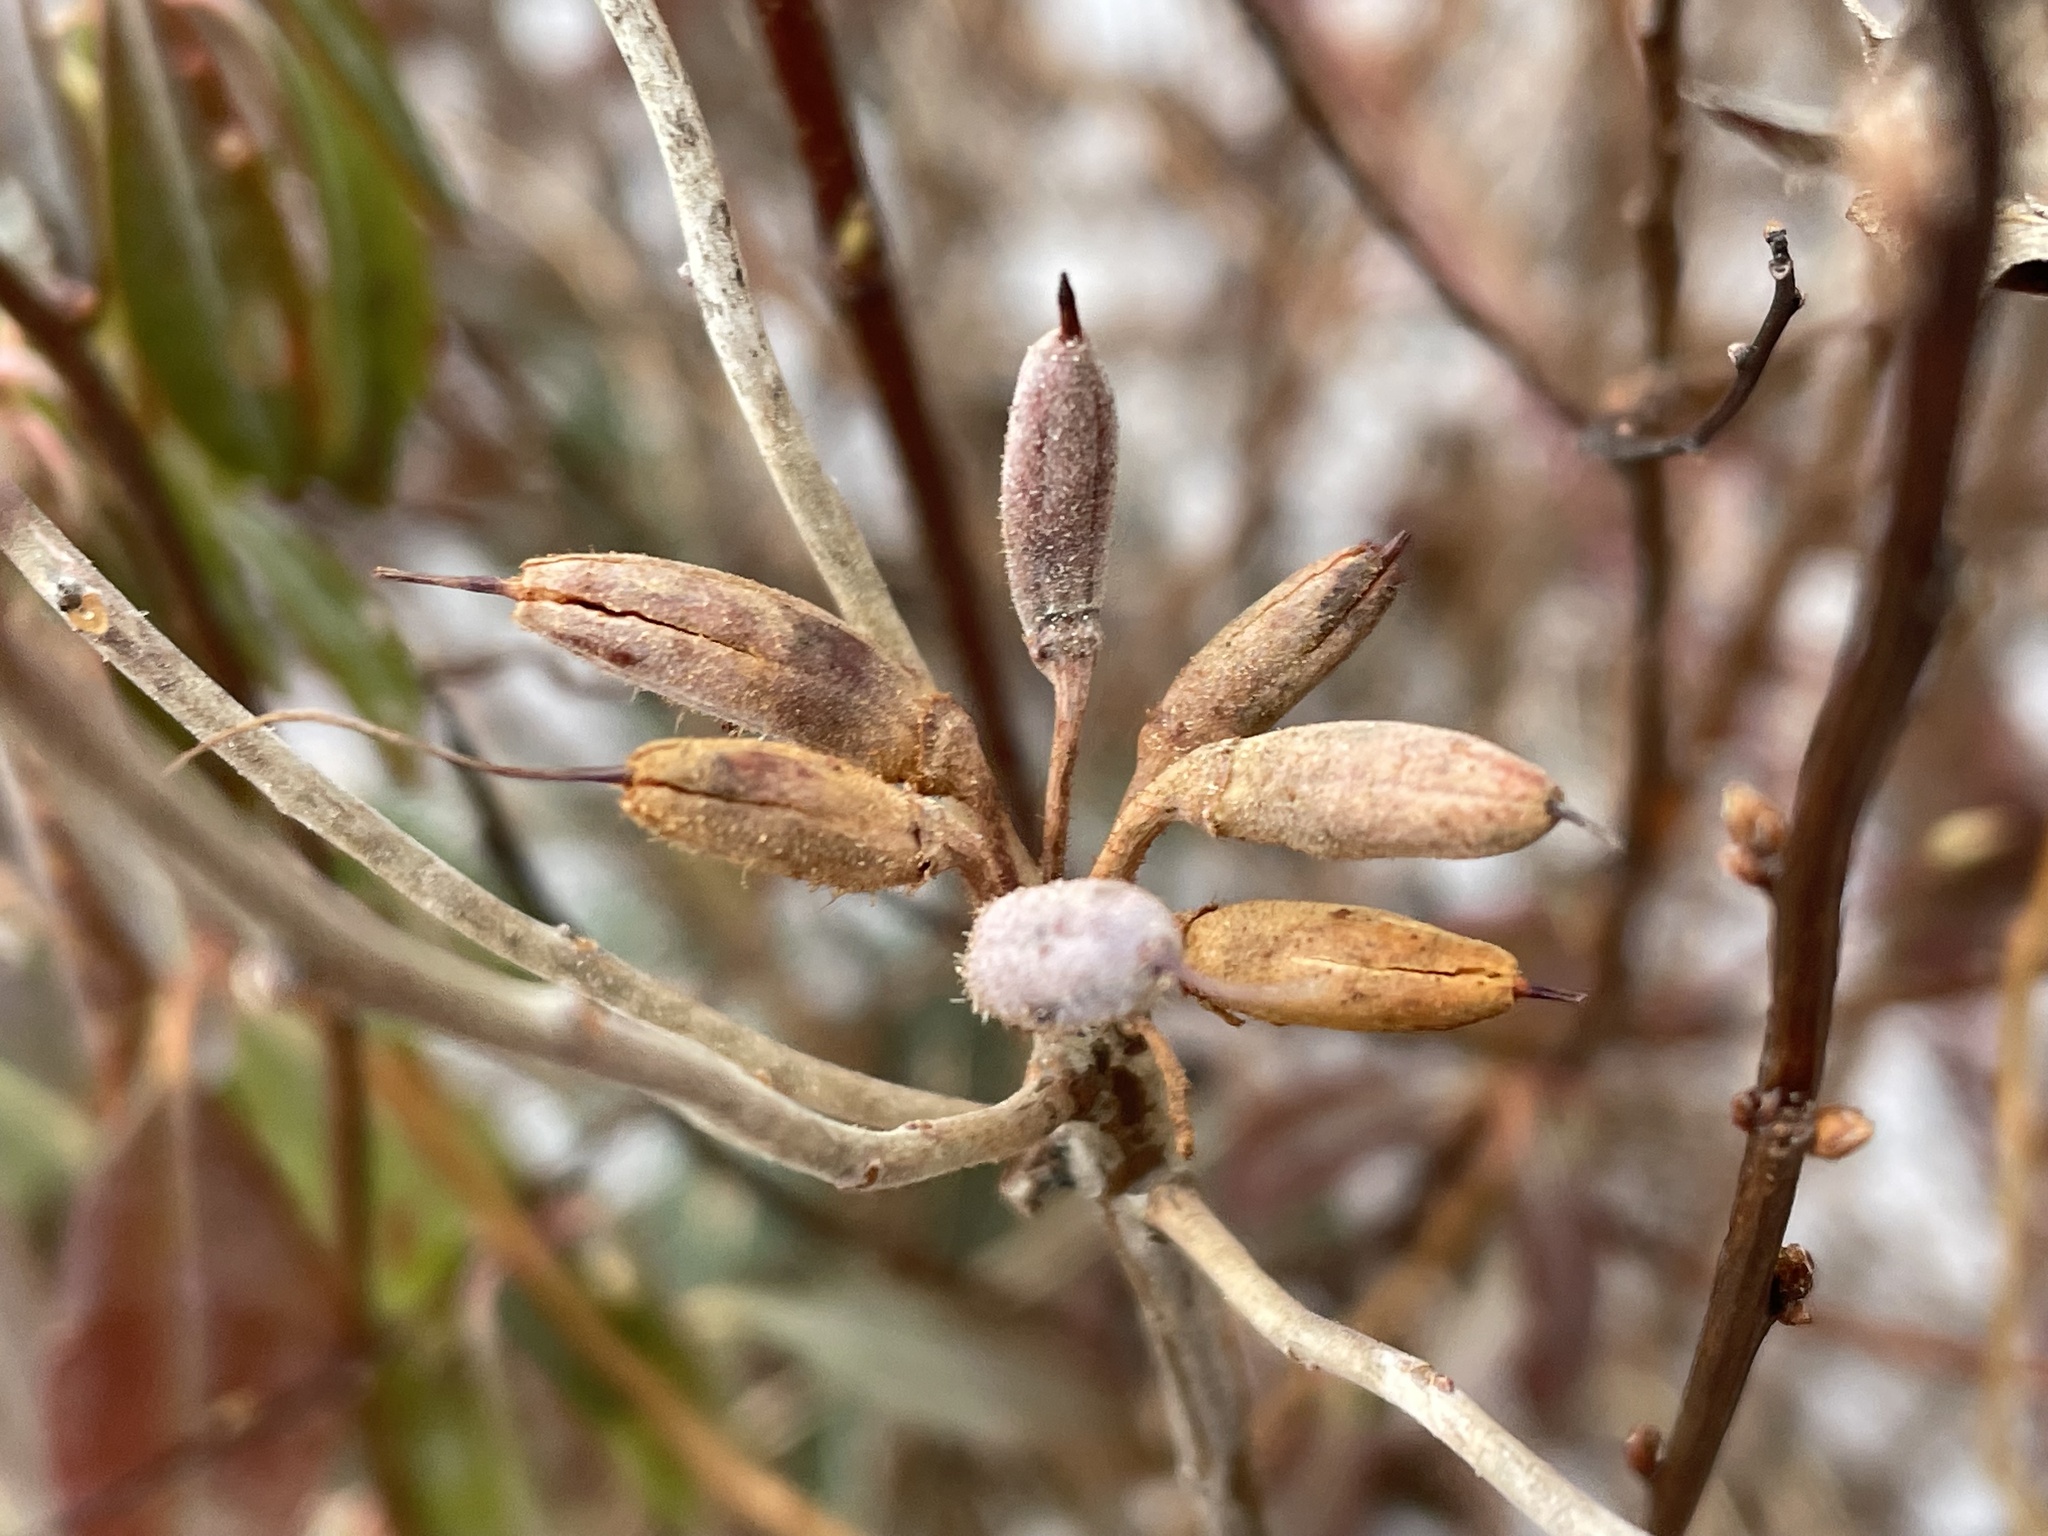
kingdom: Plantae
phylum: Tracheophyta
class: Magnoliopsida
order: Ericales
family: Ericaceae
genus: Rhododendron
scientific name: Rhododendron canadense
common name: Rhodora
